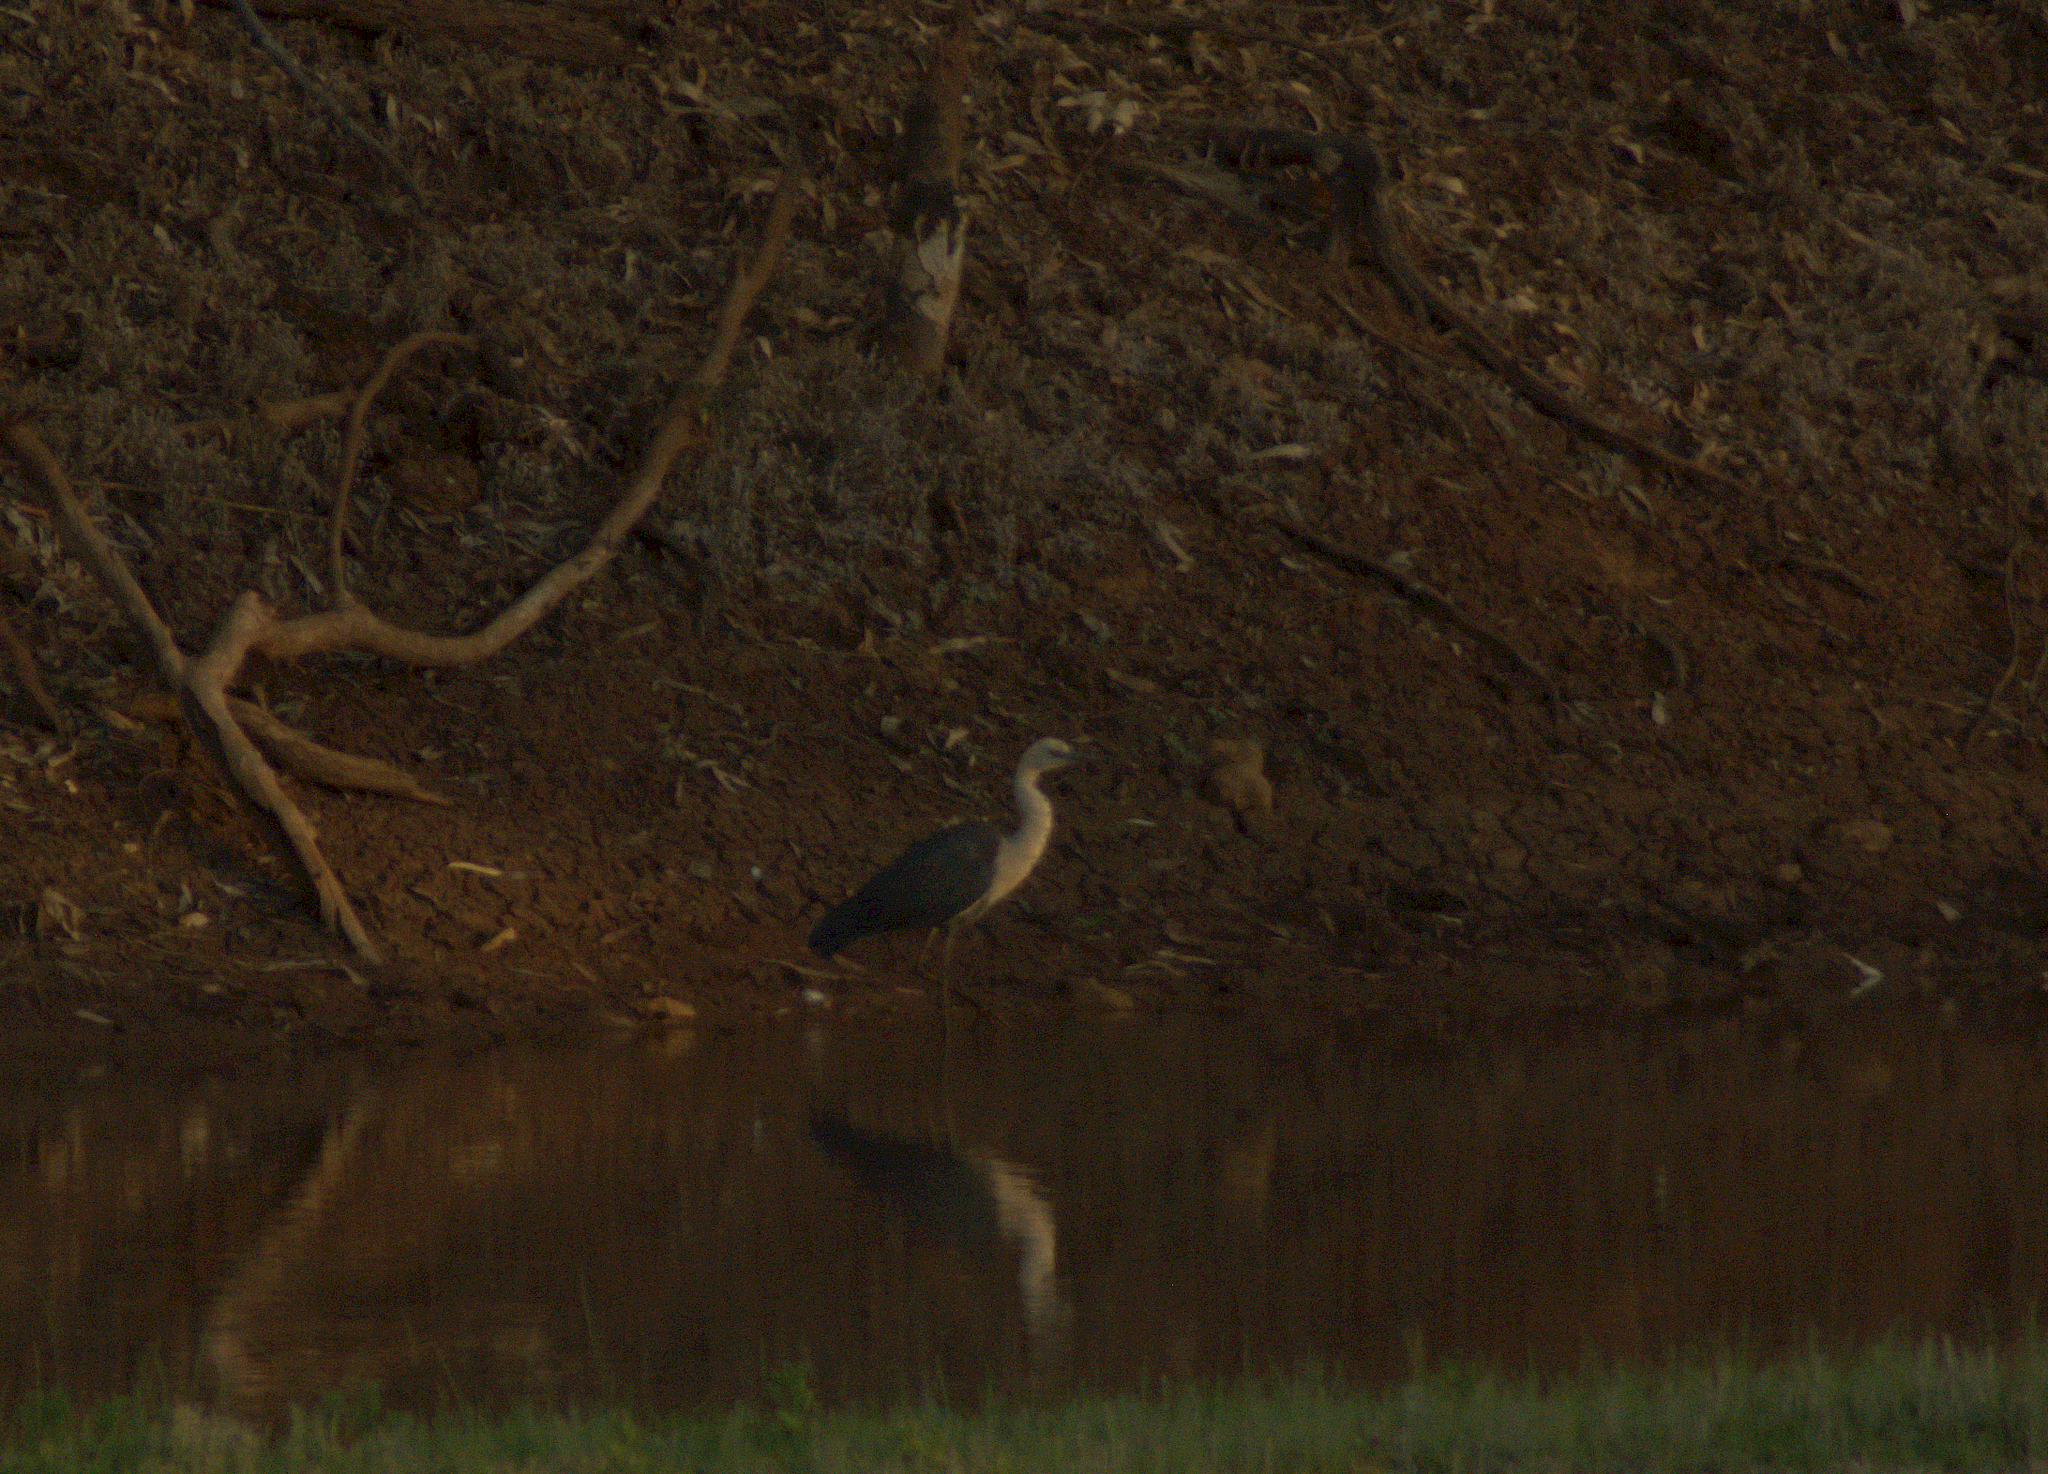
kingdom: Animalia
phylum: Chordata
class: Aves
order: Pelecaniformes
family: Ardeidae
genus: Ardea
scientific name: Ardea pacifica
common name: White-necked heron
